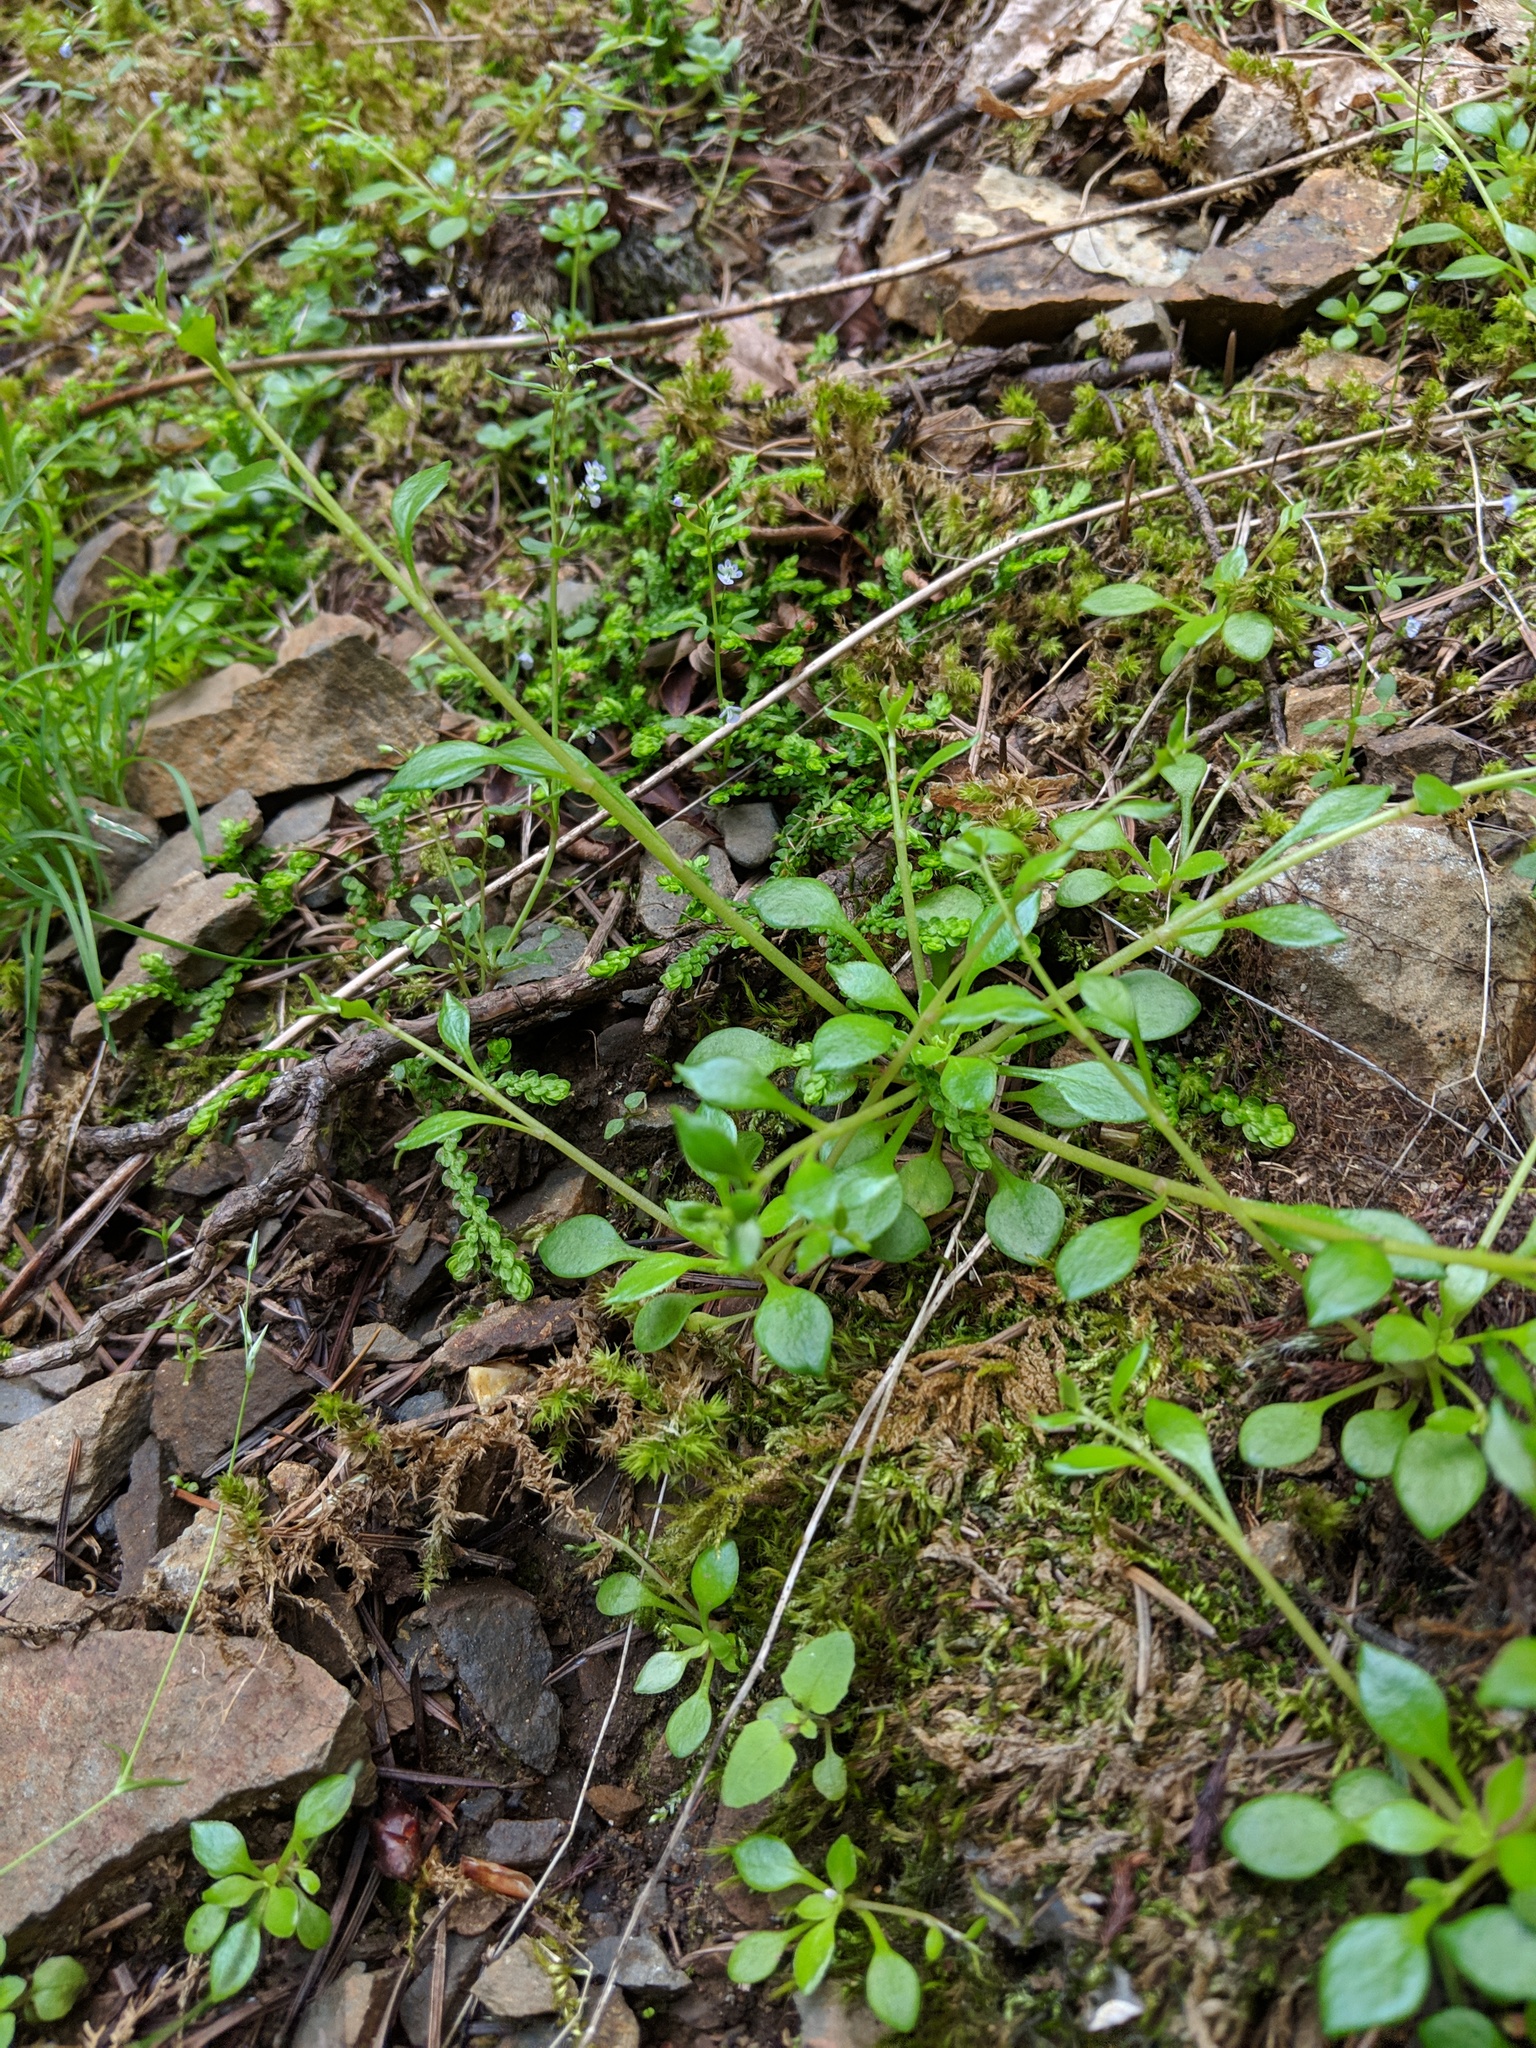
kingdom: Plantae
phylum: Tracheophyta
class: Magnoliopsida
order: Caryophyllales
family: Montiaceae
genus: Montia
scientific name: Montia parvifolia
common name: Small-leaved blinks
